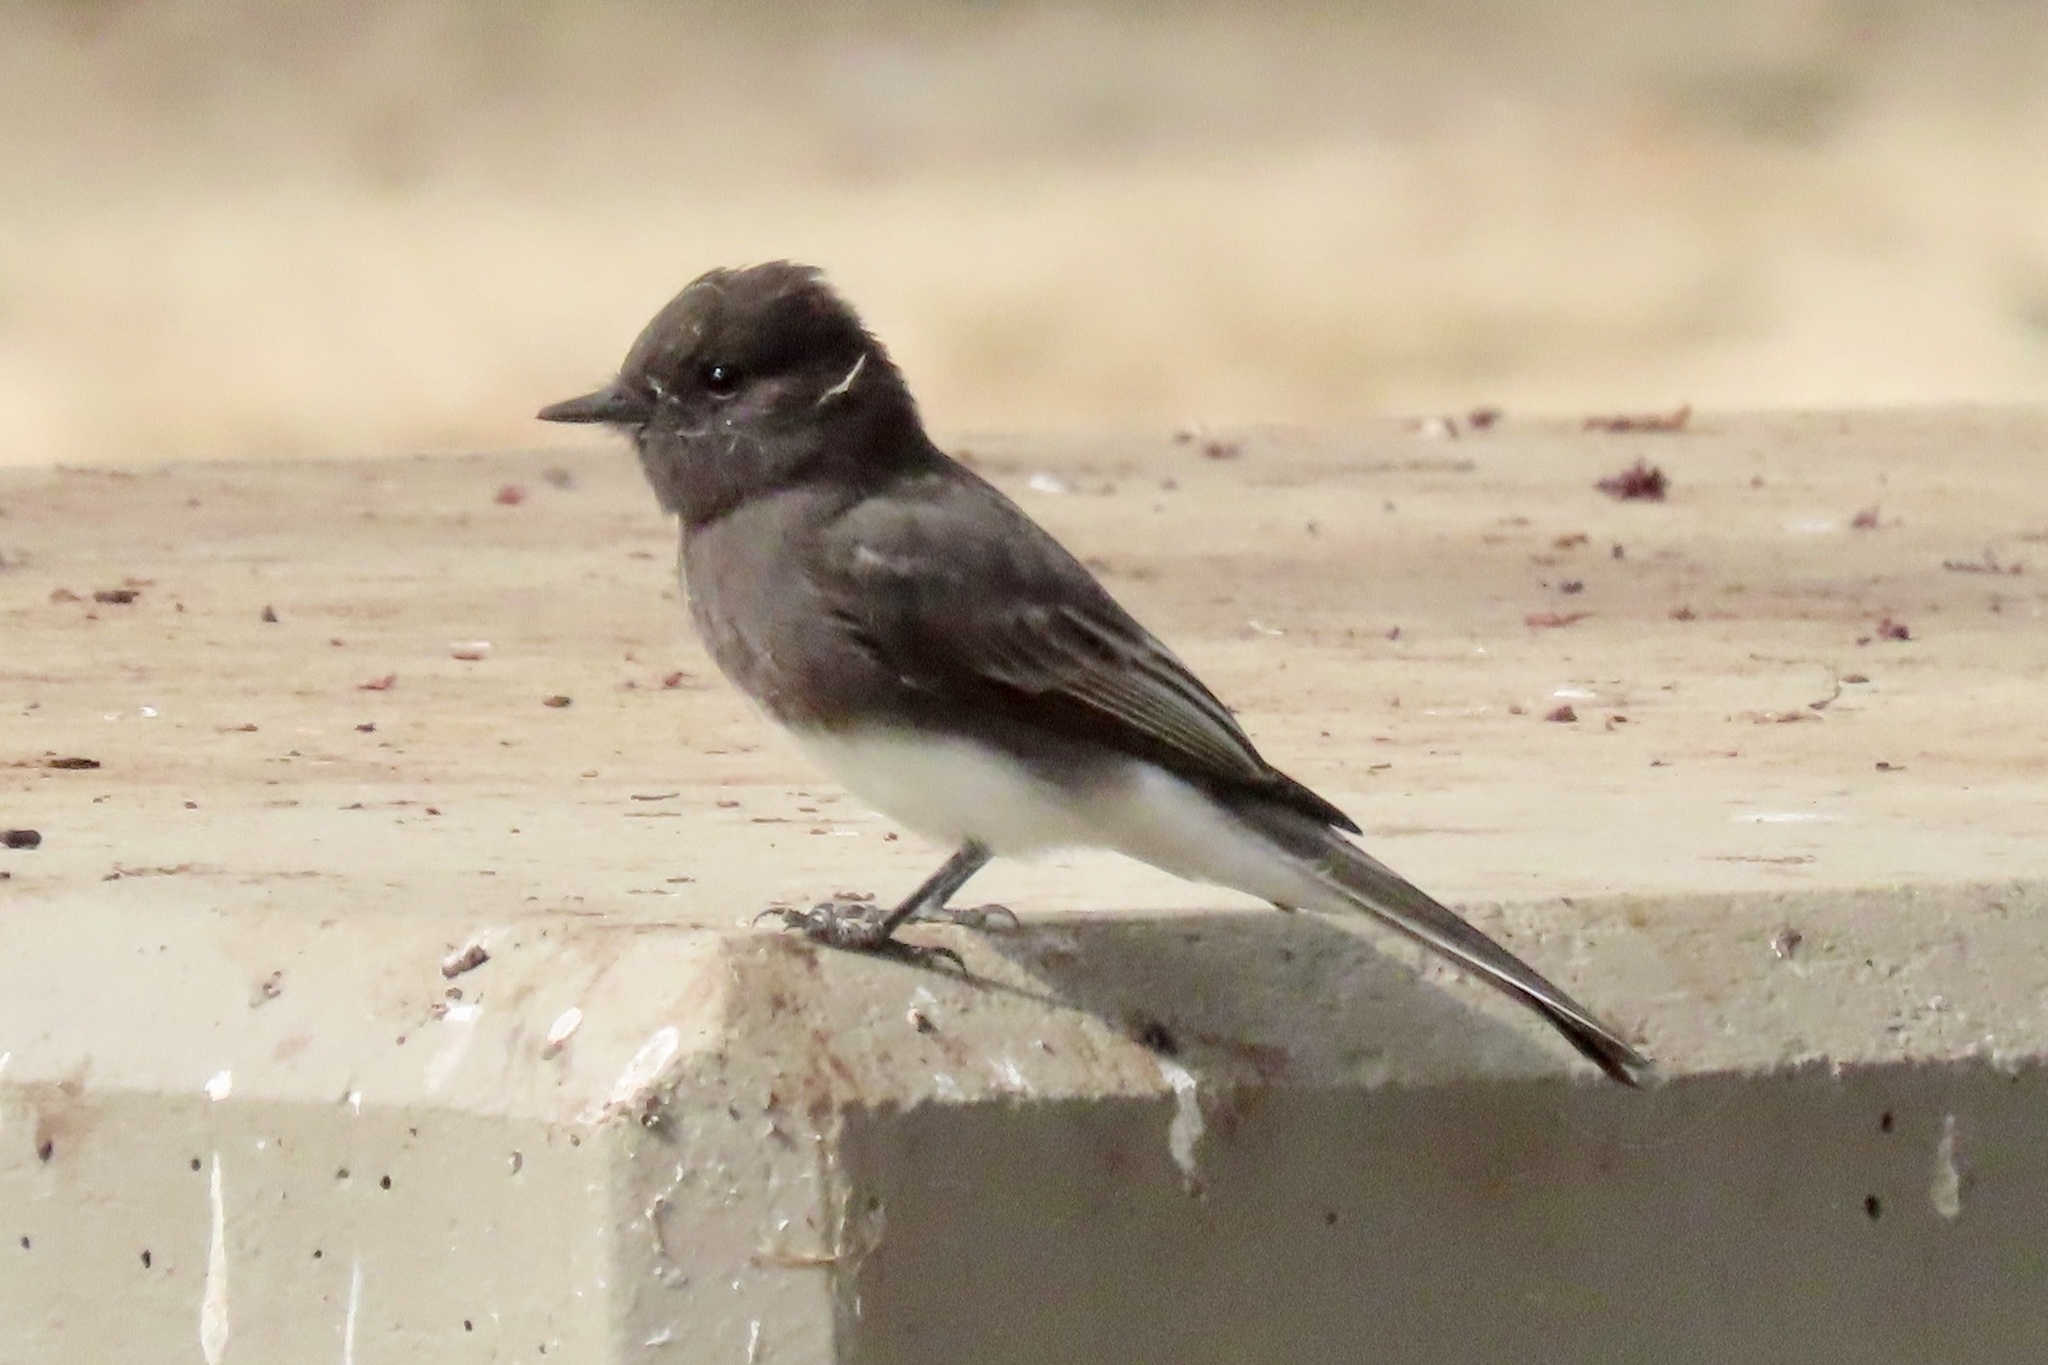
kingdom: Animalia
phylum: Chordata
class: Aves
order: Passeriformes
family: Tyrannidae
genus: Sayornis
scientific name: Sayornis nigricans
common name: Black phoebe
